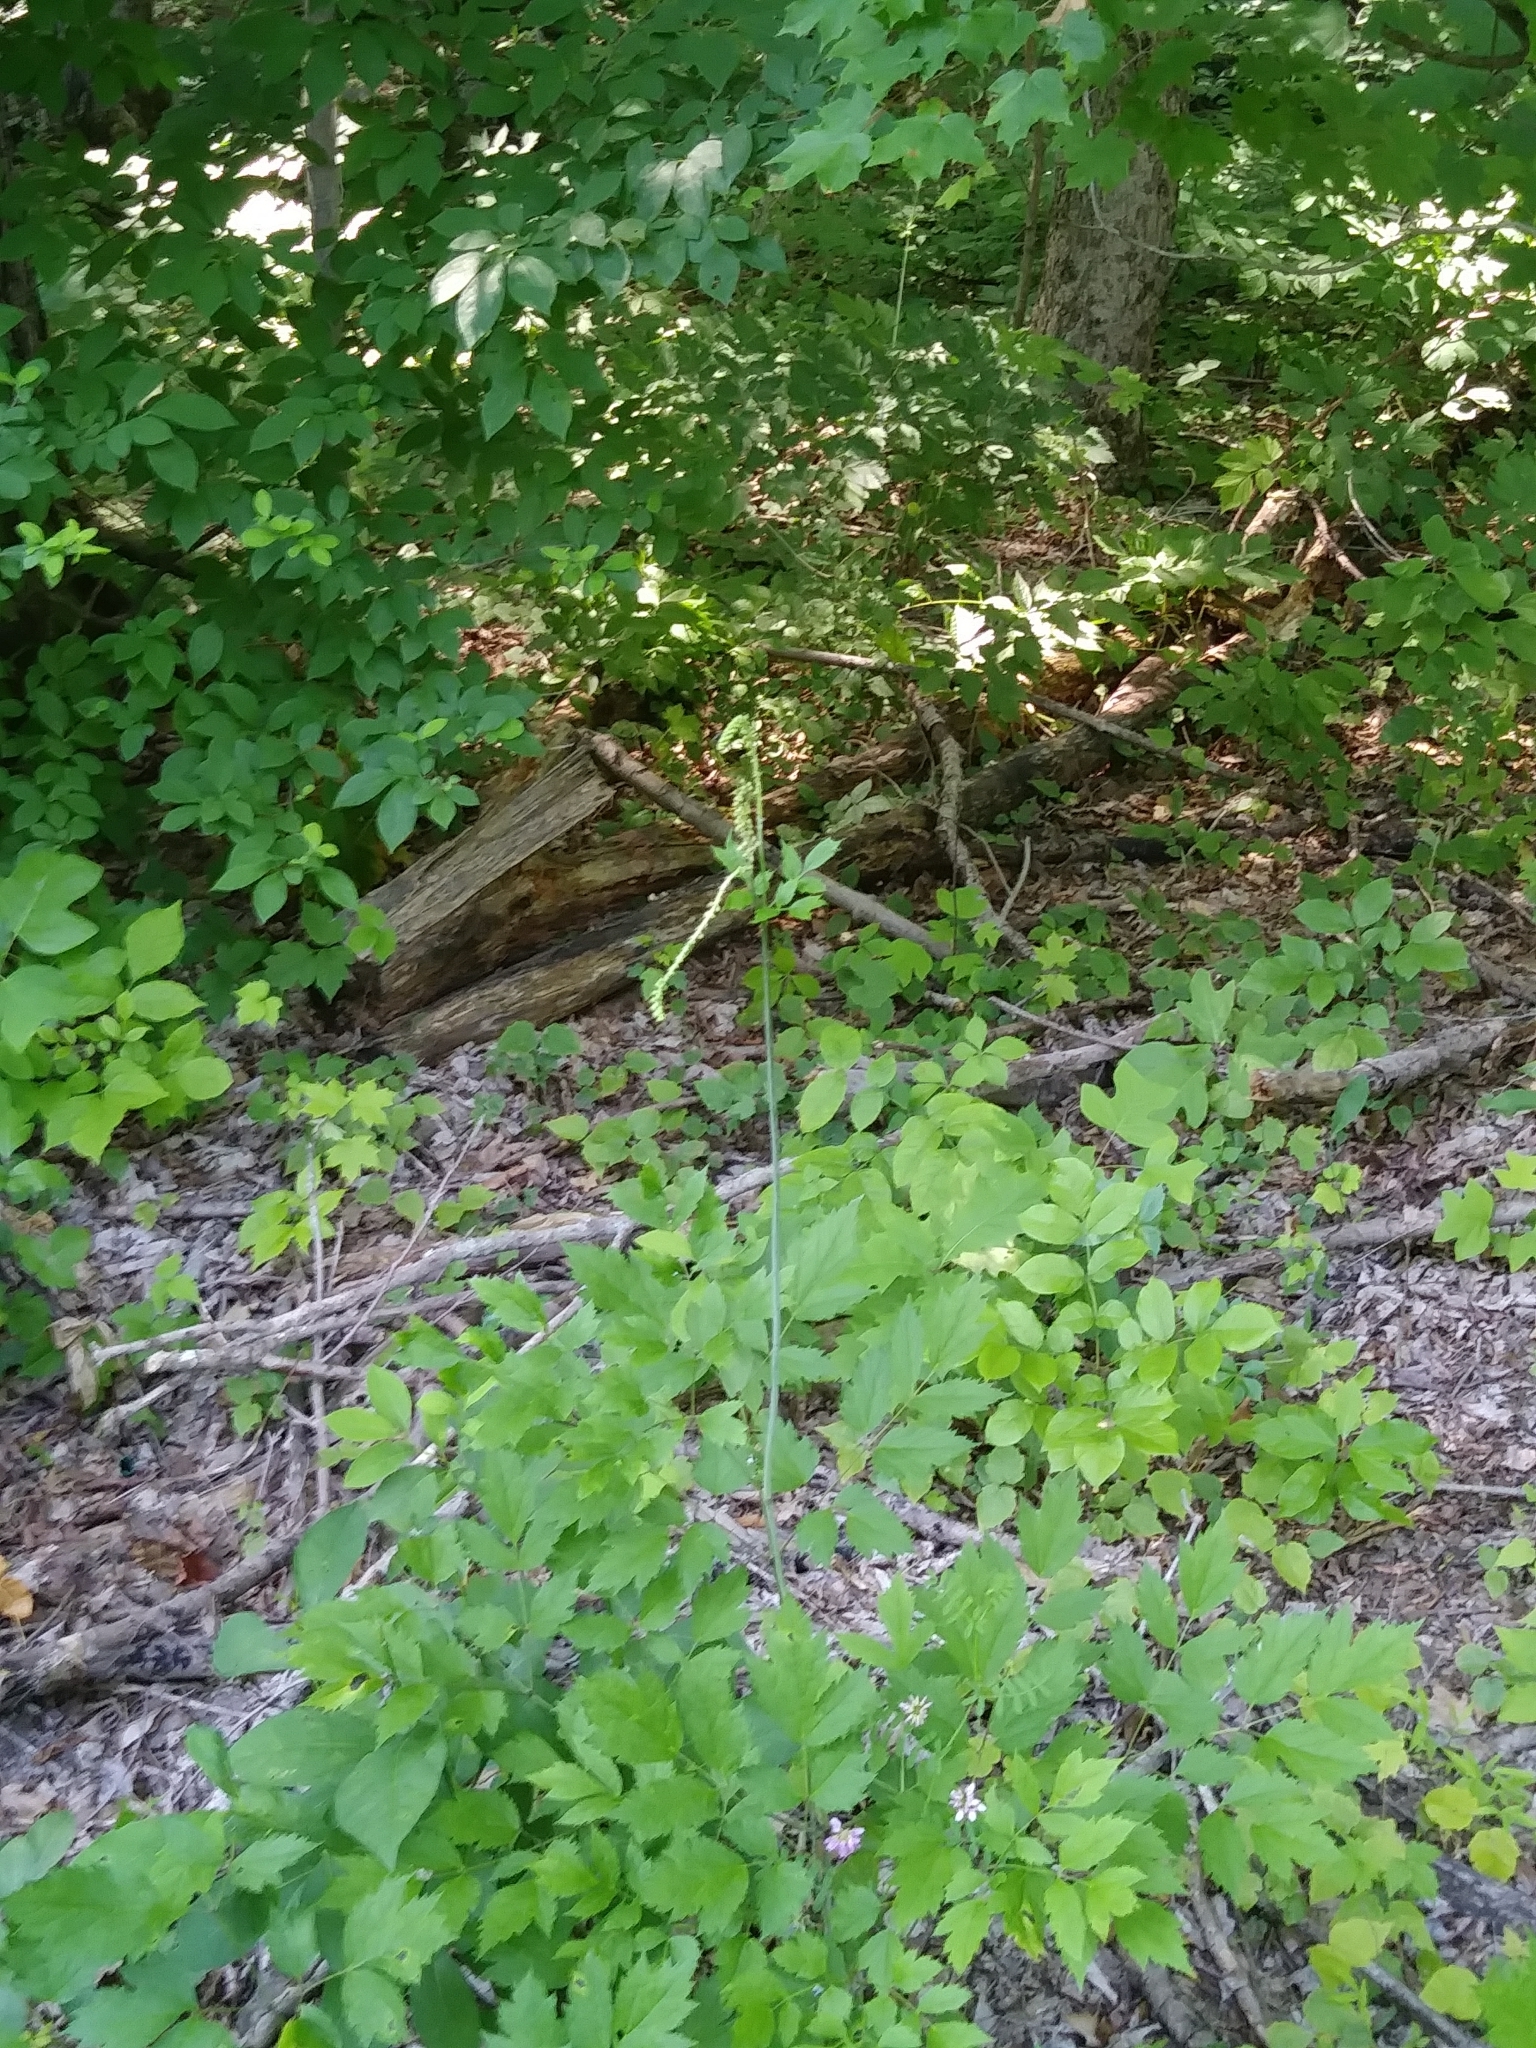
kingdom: Plantae
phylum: Tracheophyta
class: Magnoliopsida
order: Ranunculales
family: Ranunculaceae
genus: Actaea
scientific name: Actaea racemosa
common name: Black cohosh
